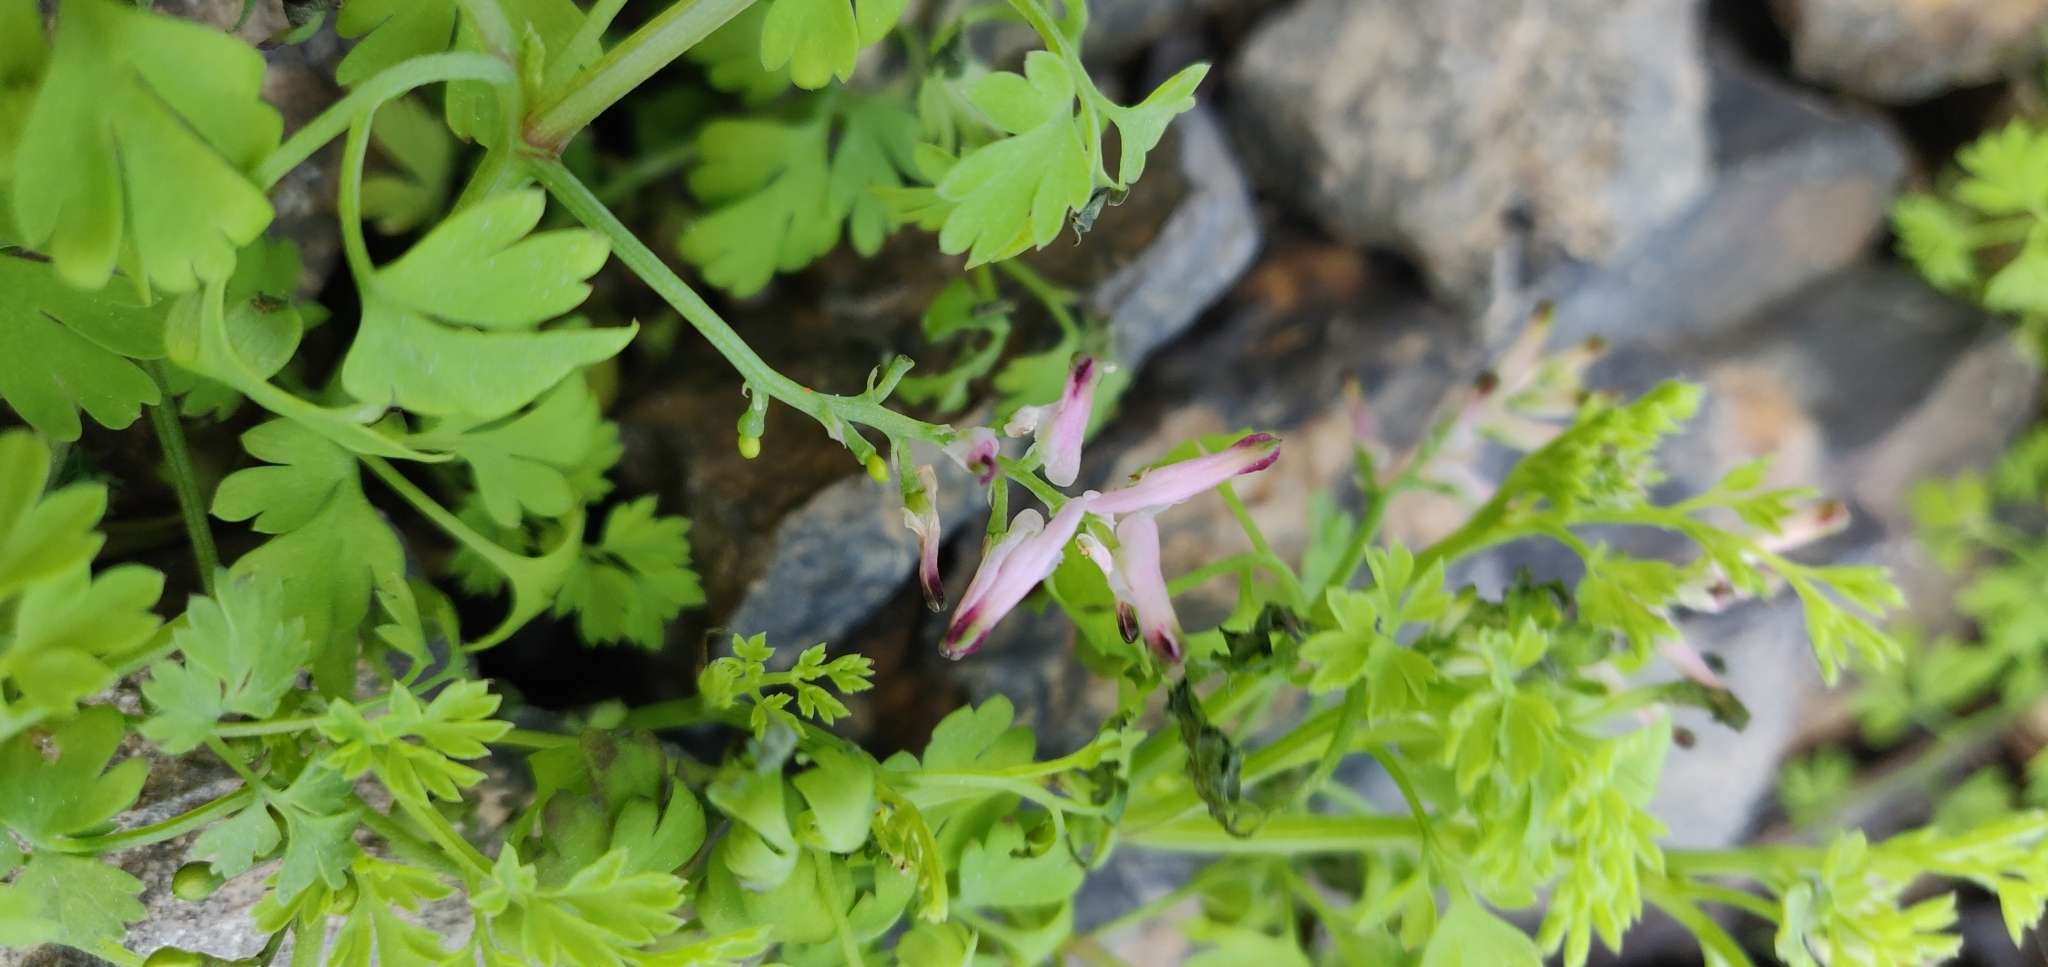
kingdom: Plantae
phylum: Tracheophyta
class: Magnoliopsida
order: Ranunculales
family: Papaveraceae
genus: Fumaria
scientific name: Fumaria muralis
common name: Common ramping-fumitory
